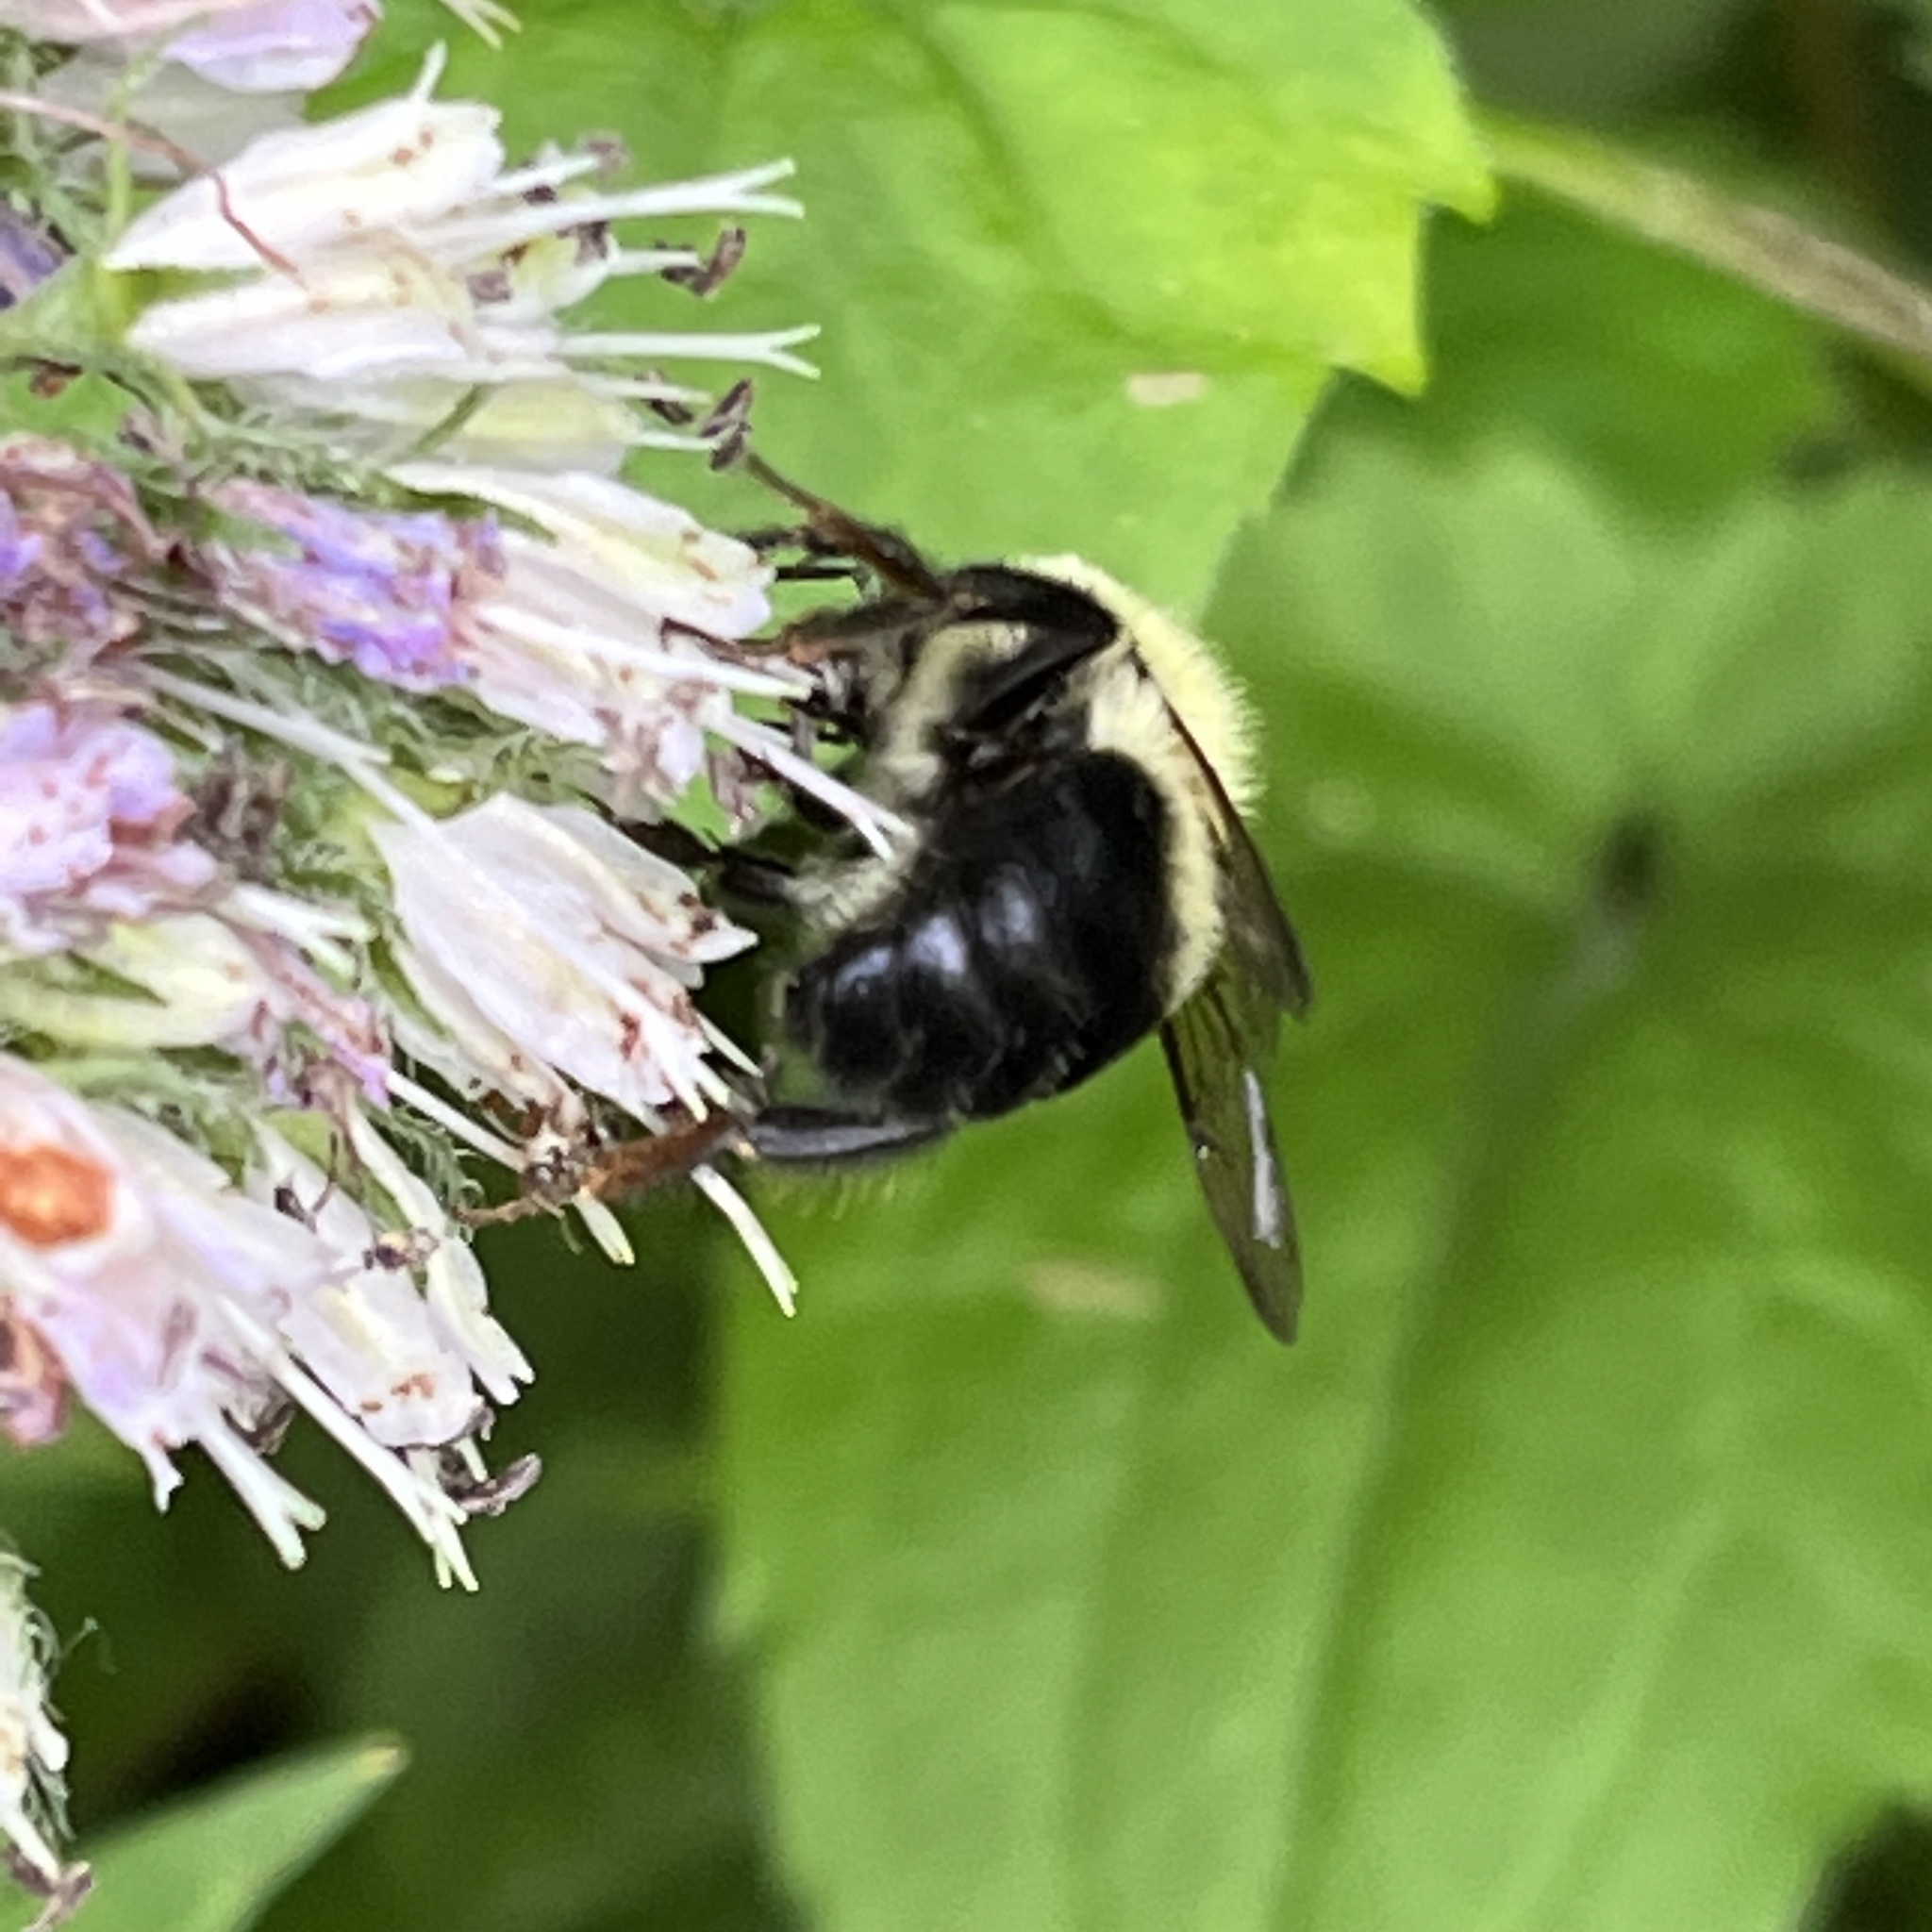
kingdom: Animalia
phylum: Arthropoda
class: Insecta
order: Hymenoptera
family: Apidae
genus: Bombus
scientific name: Bombus bimaculatus
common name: Two-spotted bumble bee
